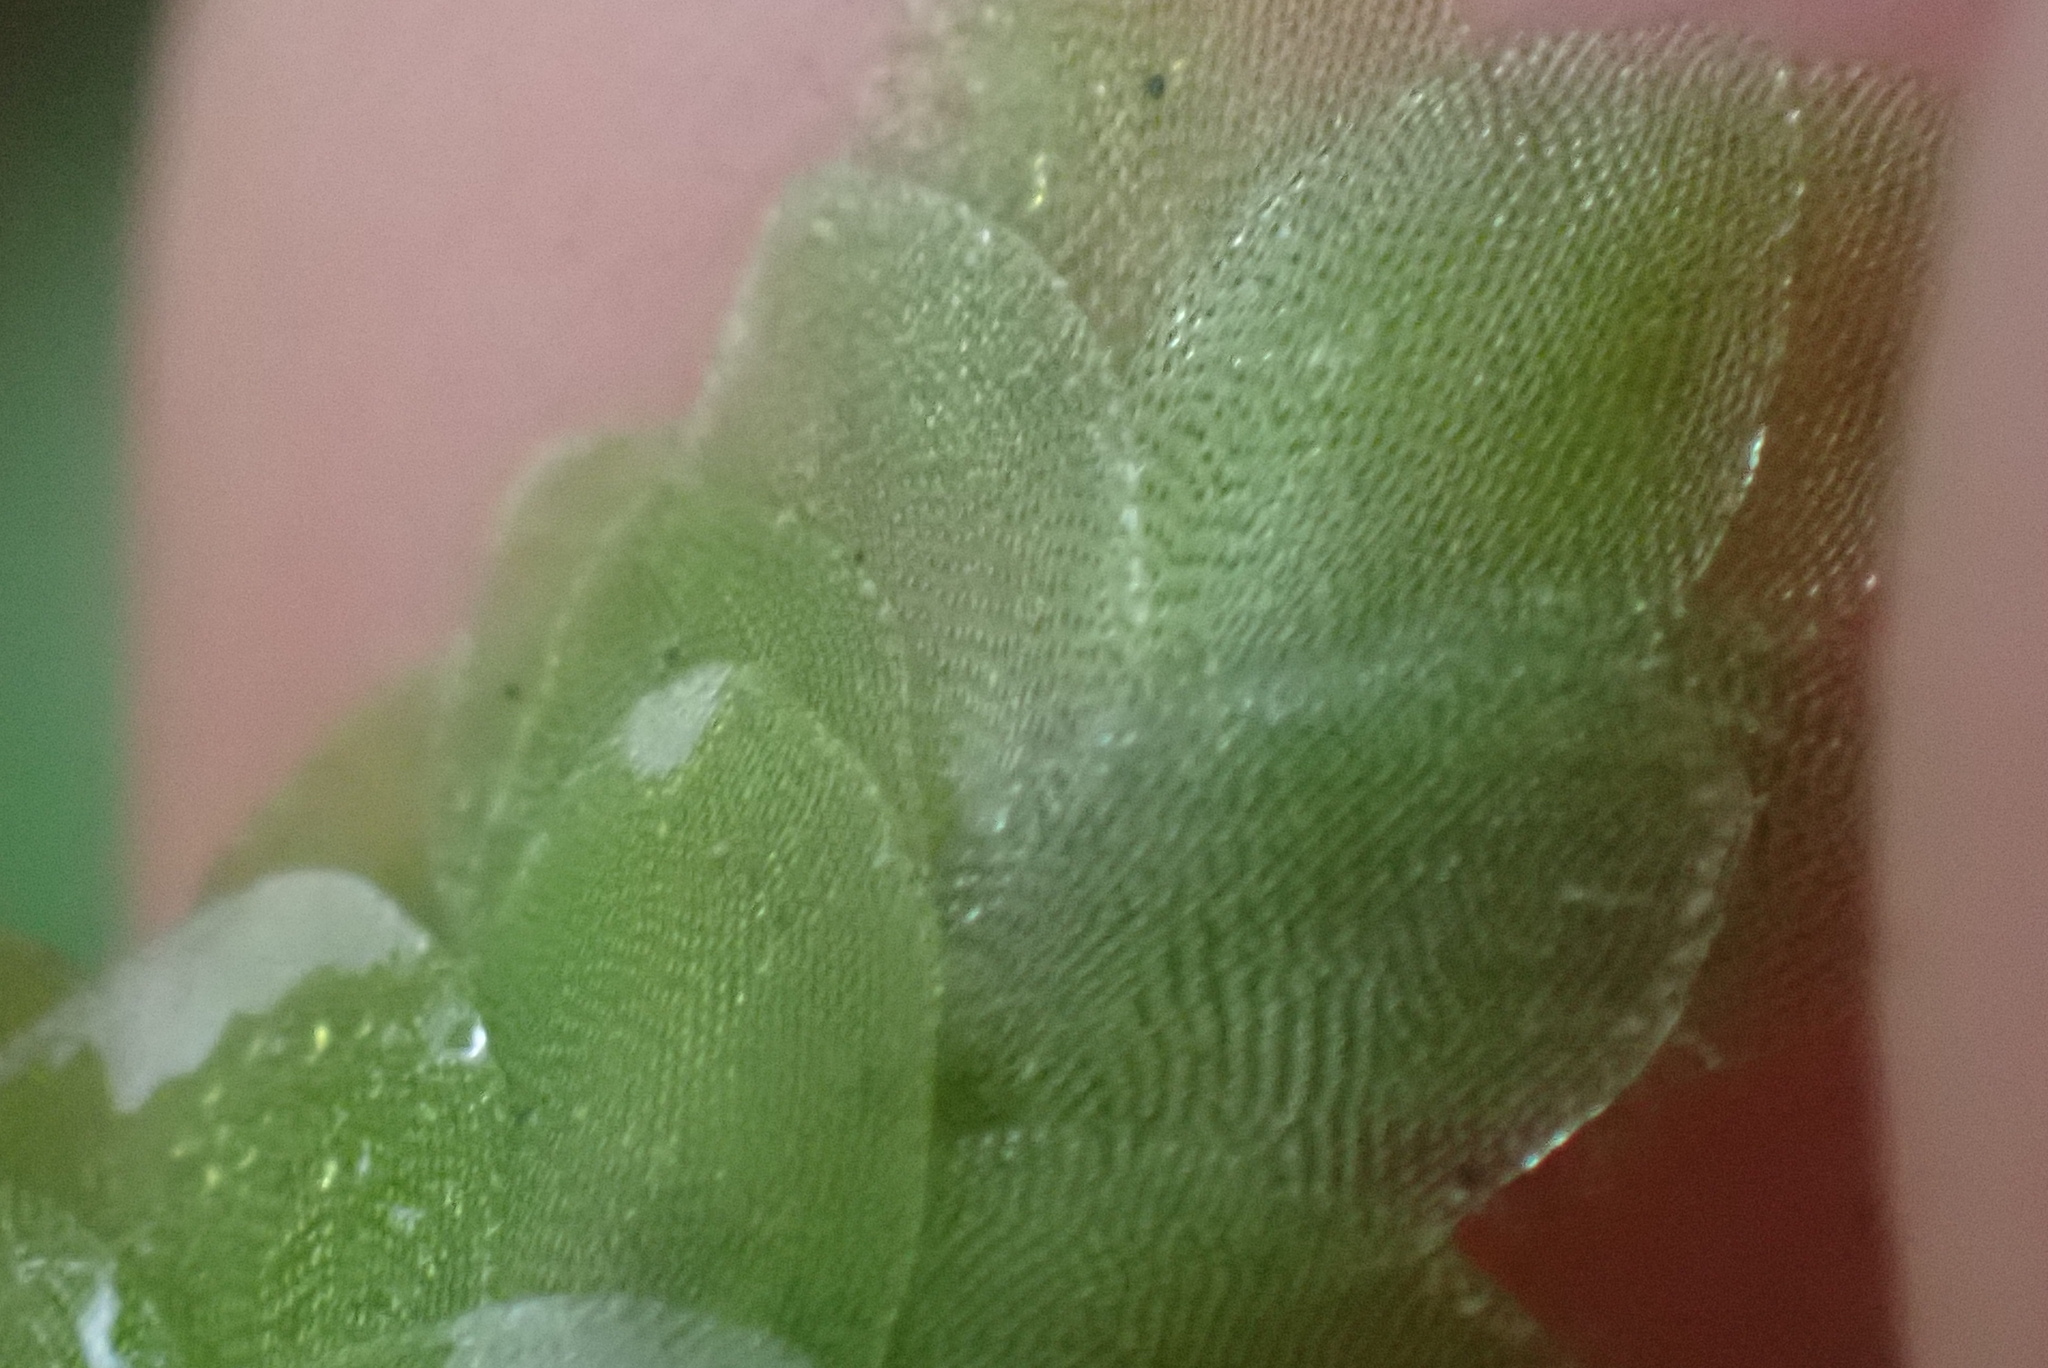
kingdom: Plantae
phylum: Bryophyta
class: Bryopsida
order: Hookeriales
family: Hookeriaceae
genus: Hookeria
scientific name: Hookeria lucens
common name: Shining hookeria
